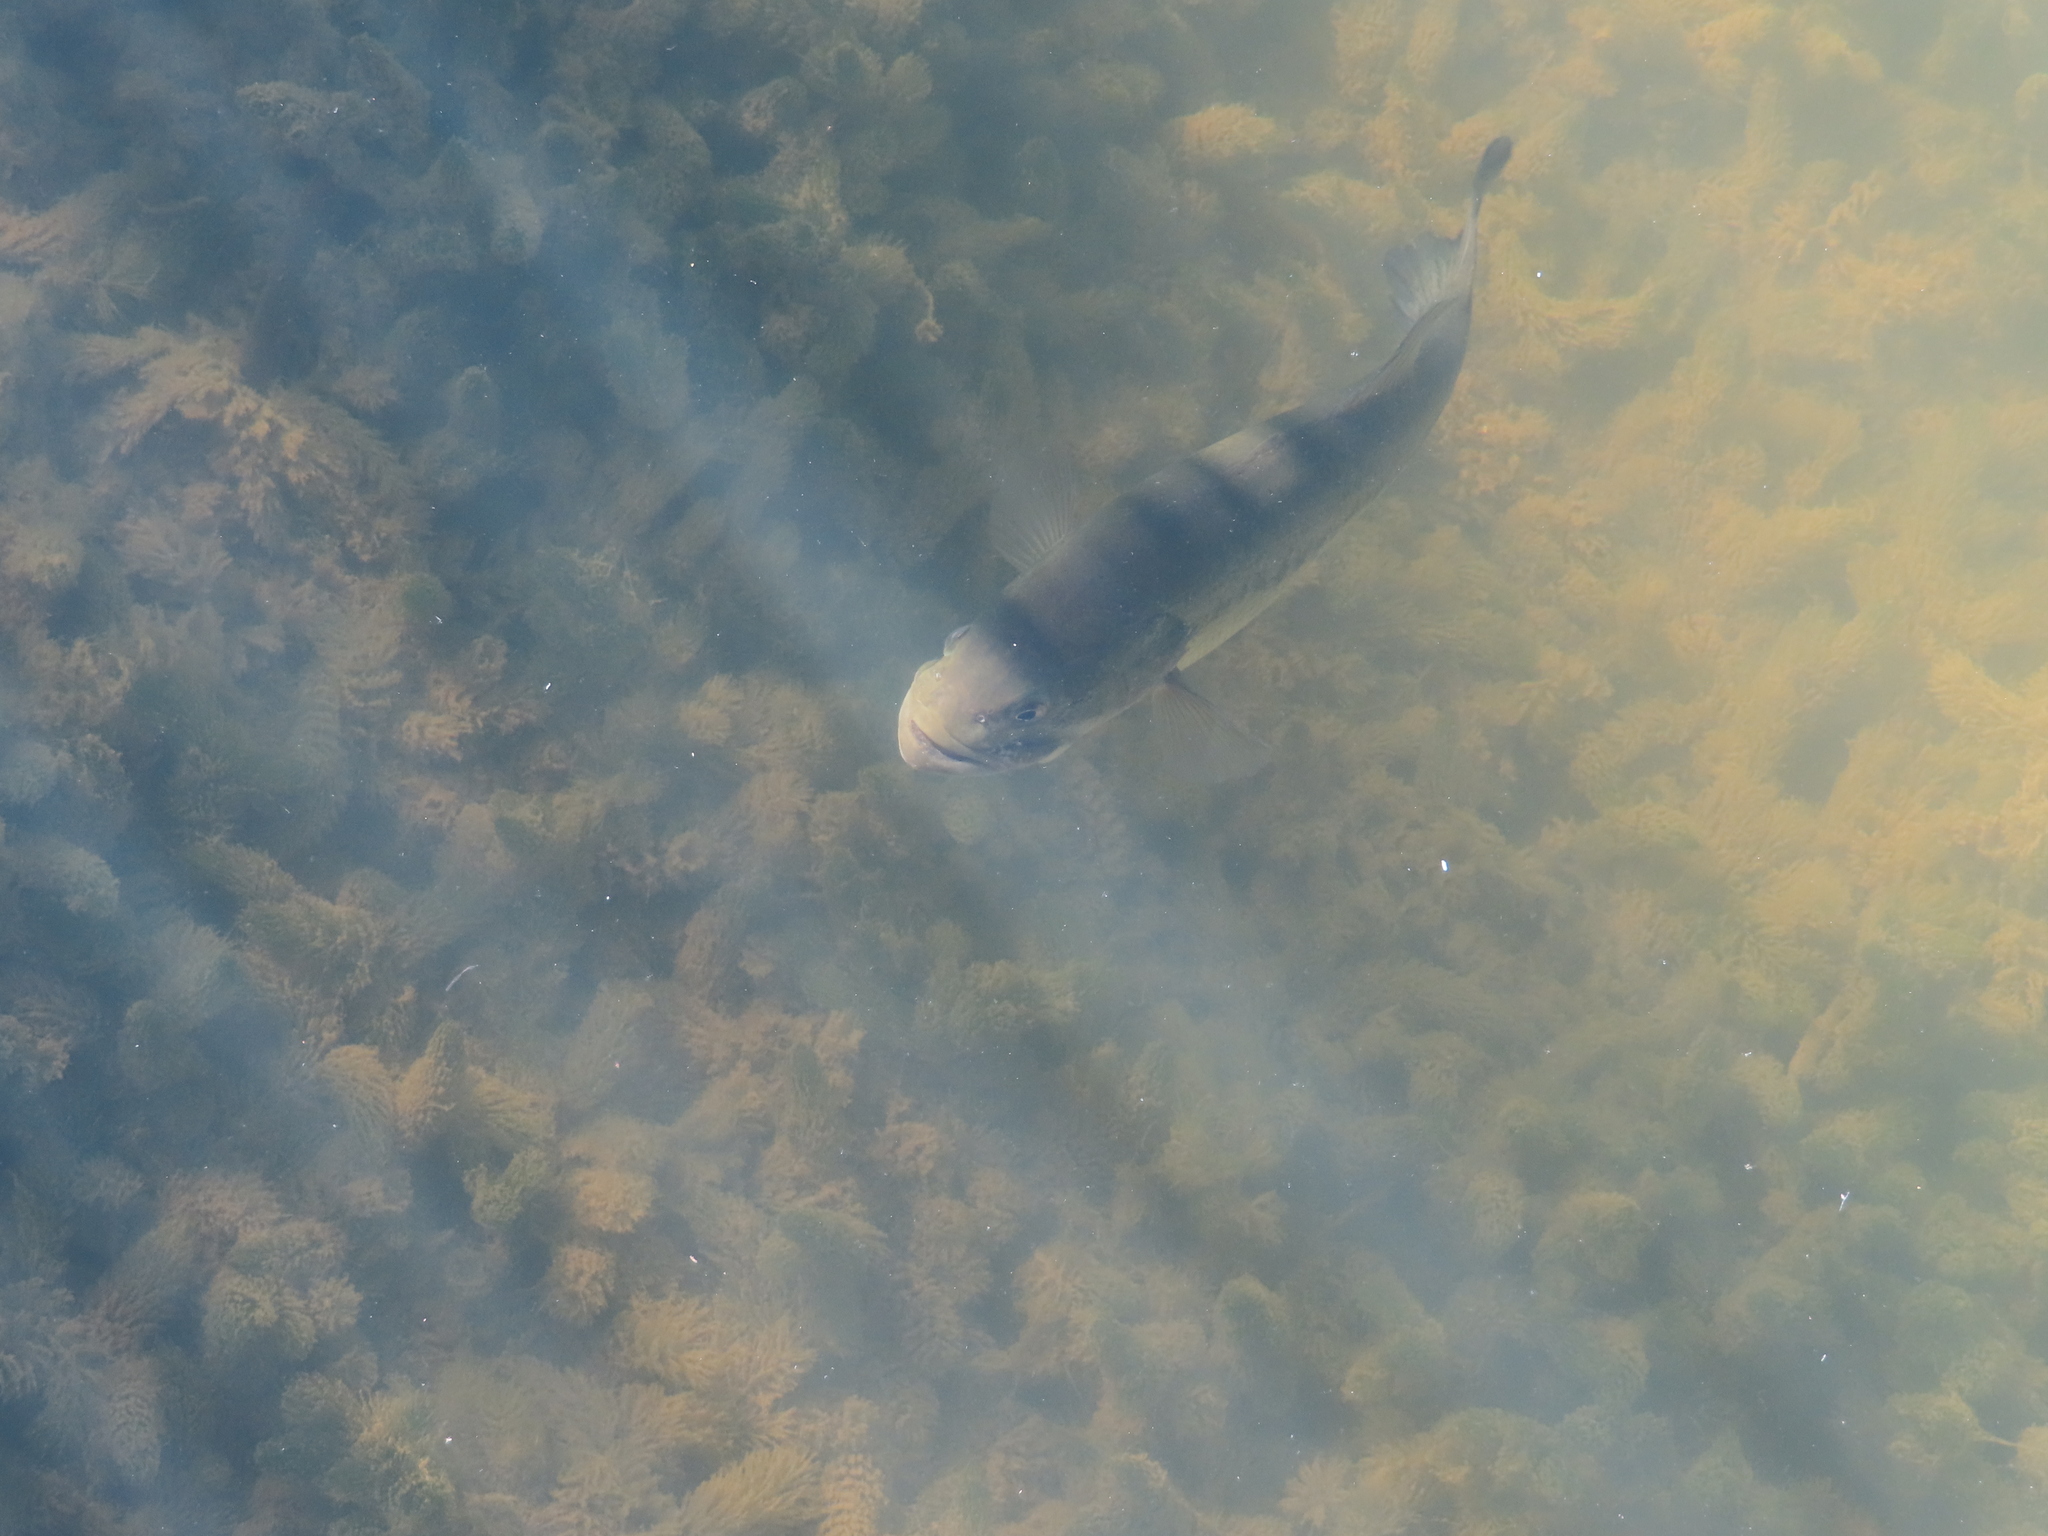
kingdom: Animalia
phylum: Chordata
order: Perciformes
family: Centrarchidae
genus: Micropterus
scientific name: Micropterus
